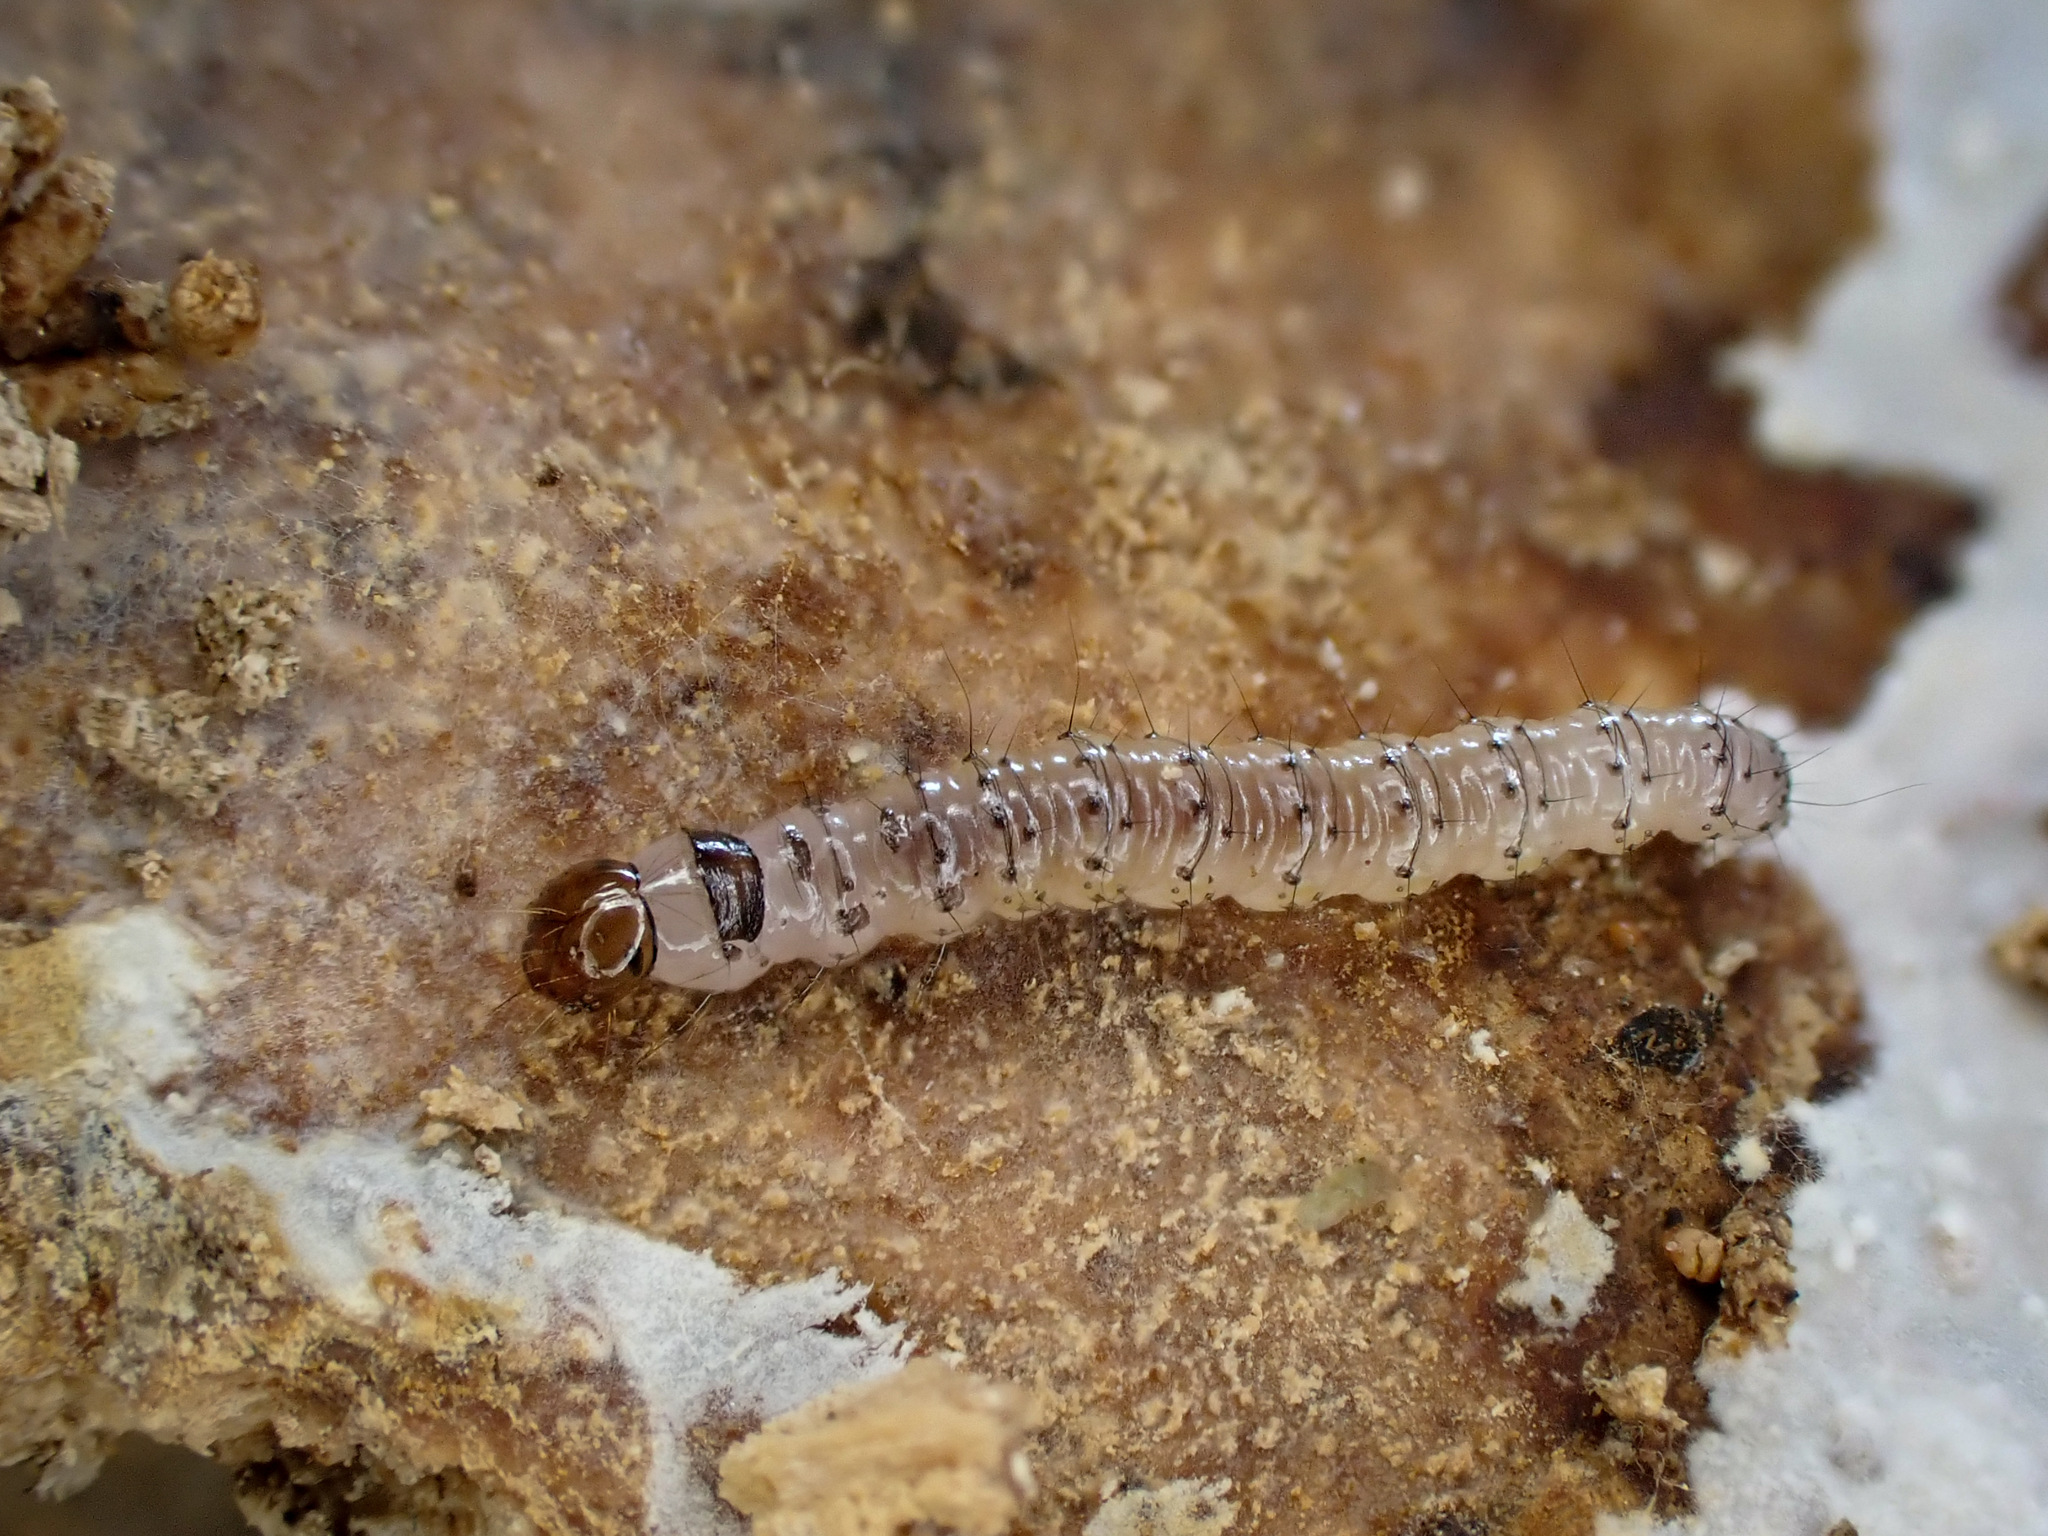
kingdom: Animalia
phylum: Arthropoda
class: Insecta
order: Lepidoptera
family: Hepialidae
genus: Aenetus
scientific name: Aenetus virescens
